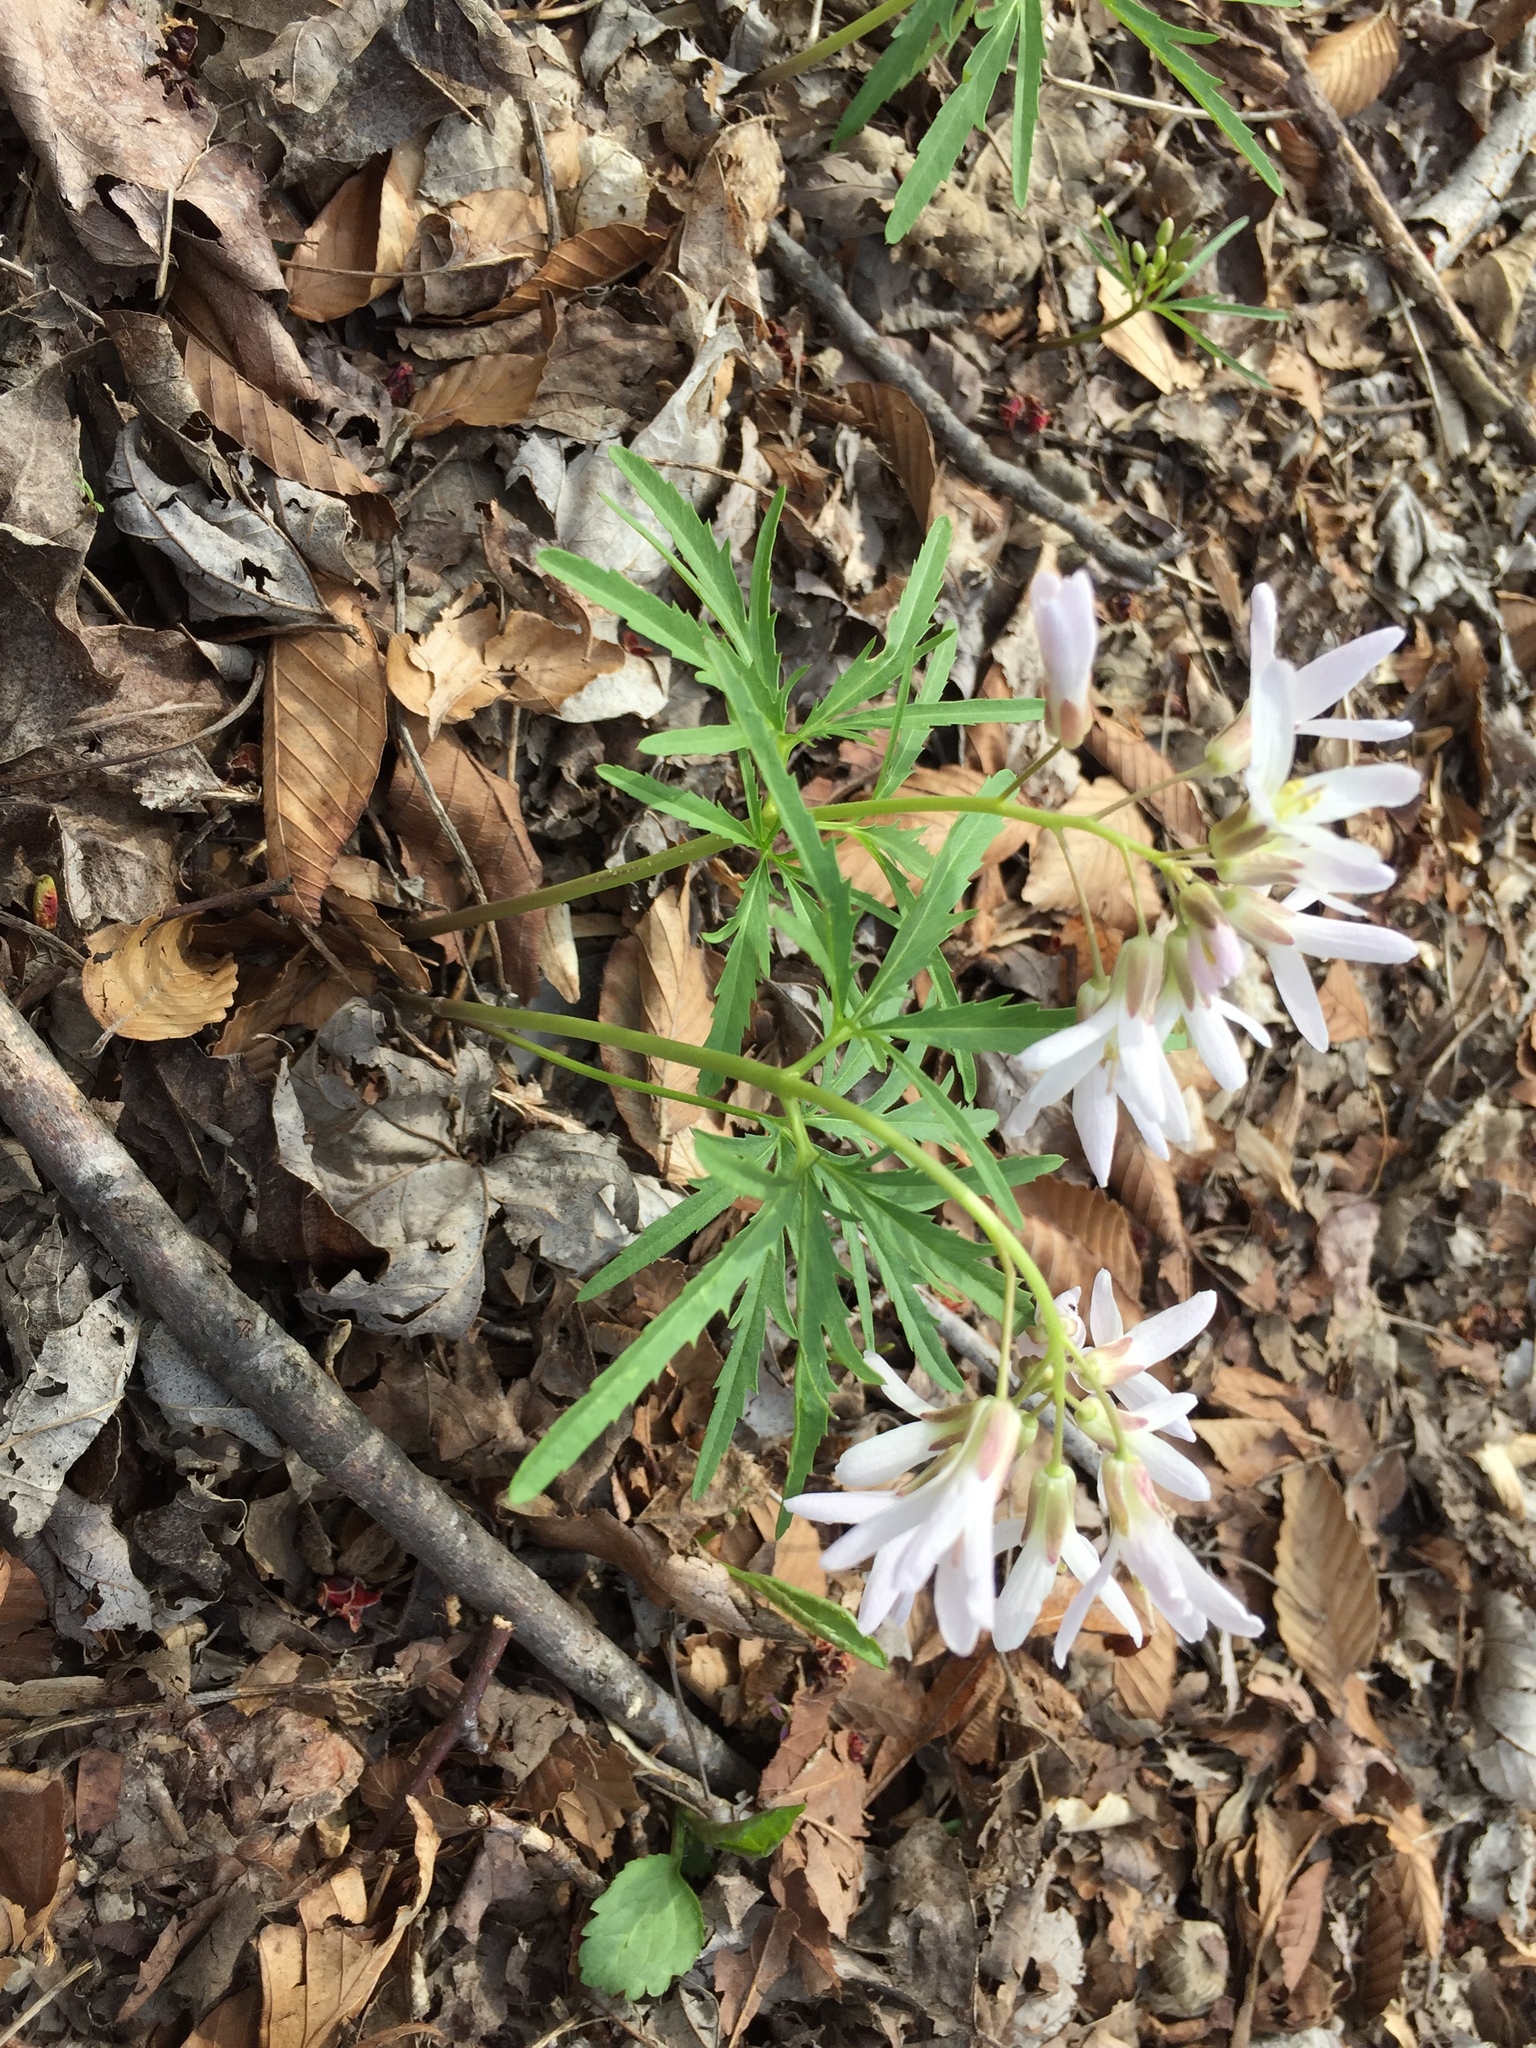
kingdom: Plantae
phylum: Tracheophyta
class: Magnoliopsida
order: Brassicales
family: Brassicaceae
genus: Cardamine
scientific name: Cardamine concatenata
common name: Cut-leaf toothcup
